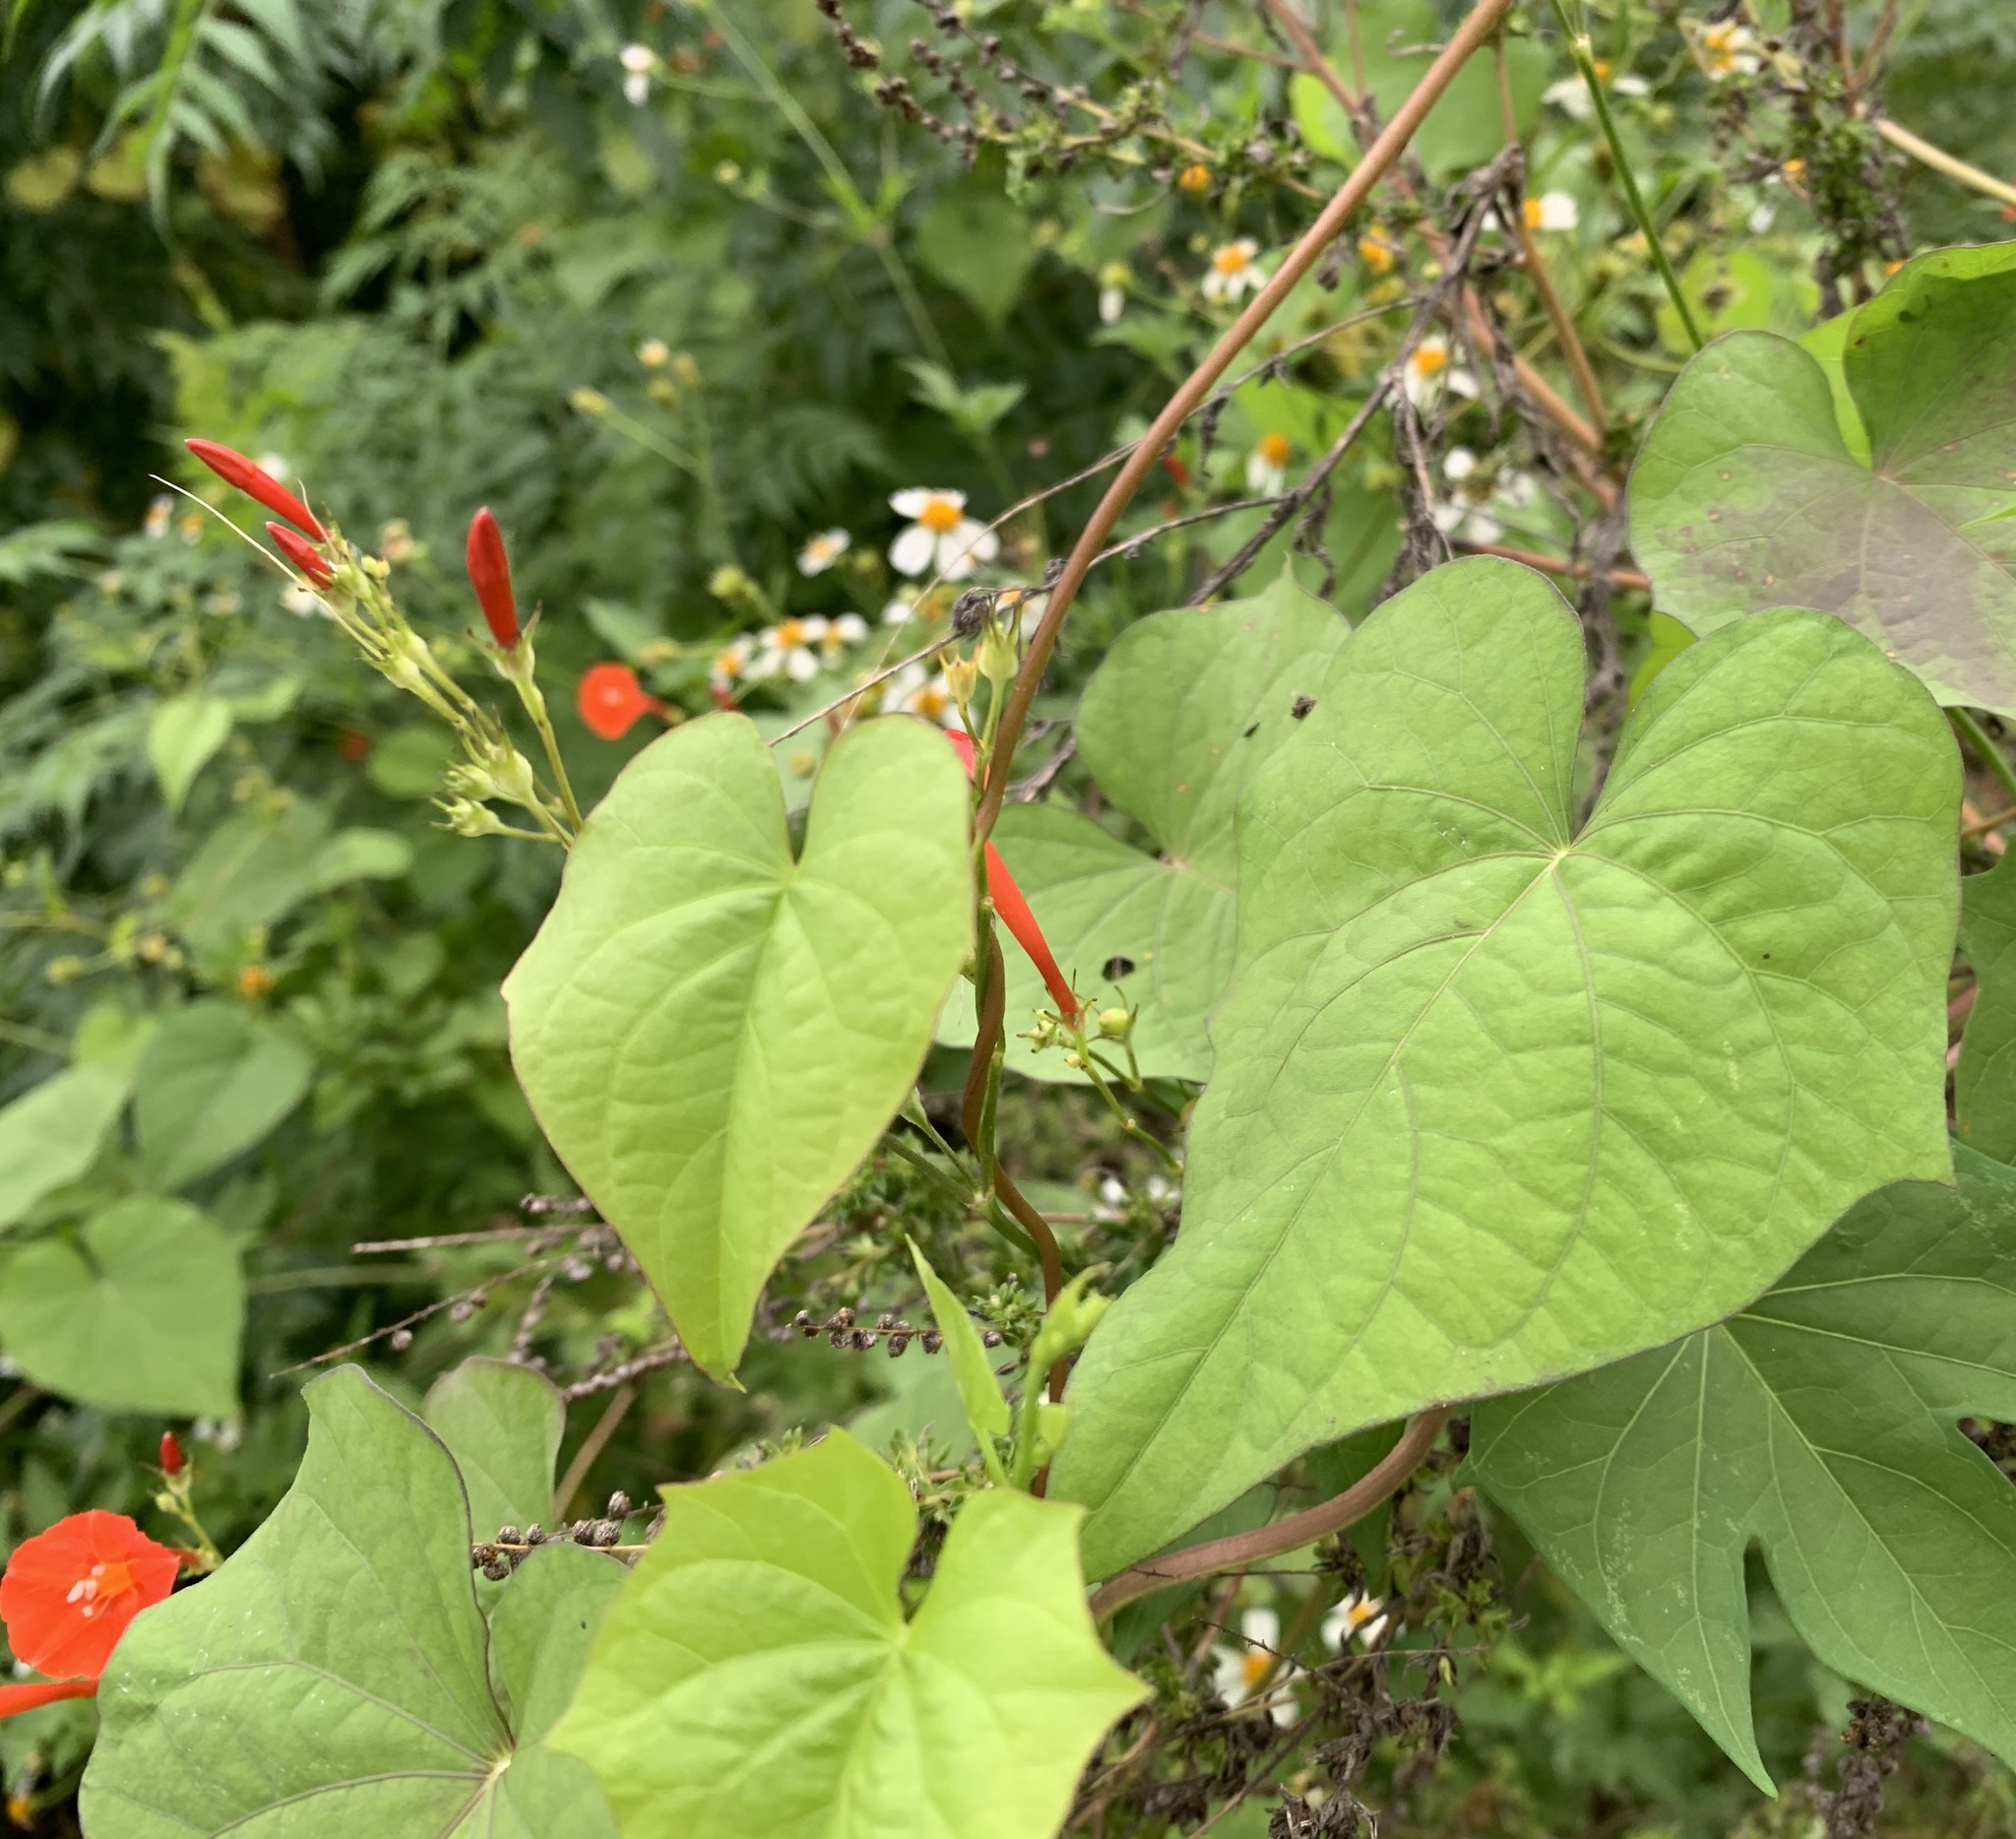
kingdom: Plantae
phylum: Tracheophyta
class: Magnoliopsida
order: Solanales
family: Convolvulaceae
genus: Ipomoea
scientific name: Ipomoea hederifolia
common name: Ivy-leaf morning-glory
